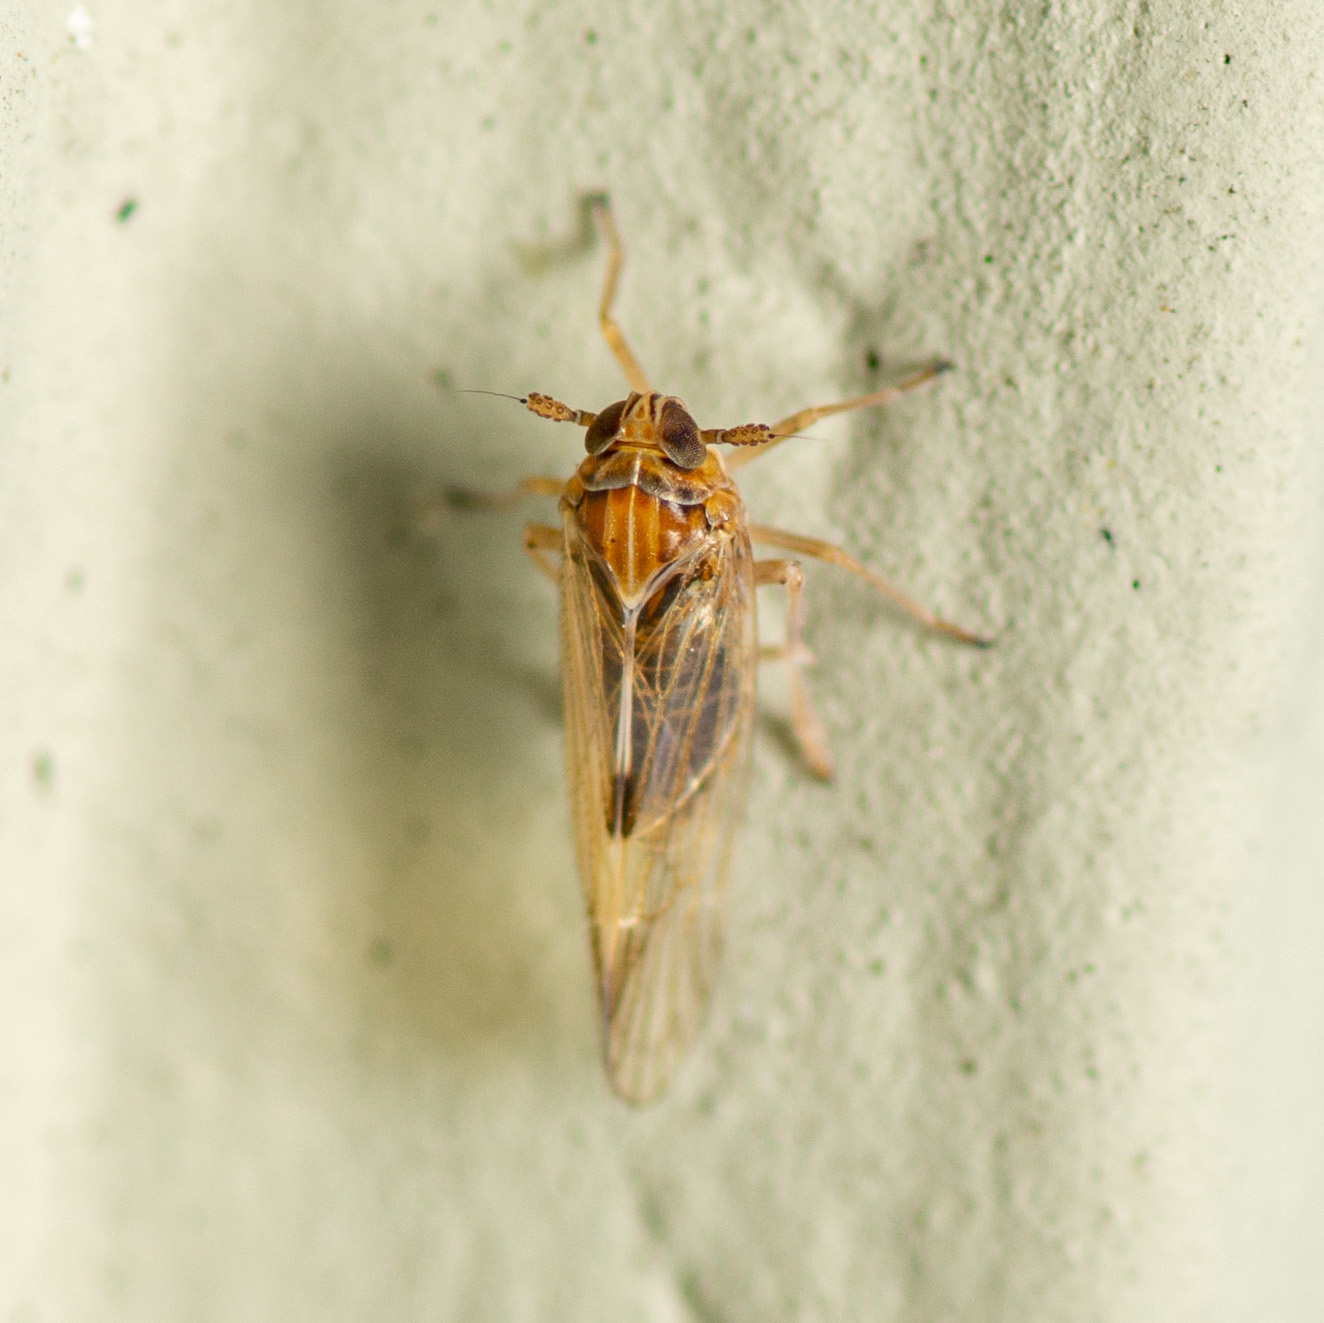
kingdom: Animalia
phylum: Arthropoda
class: Insecta
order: Hemiptera
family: Delphacidae
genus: Chionomus
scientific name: Chionomus
